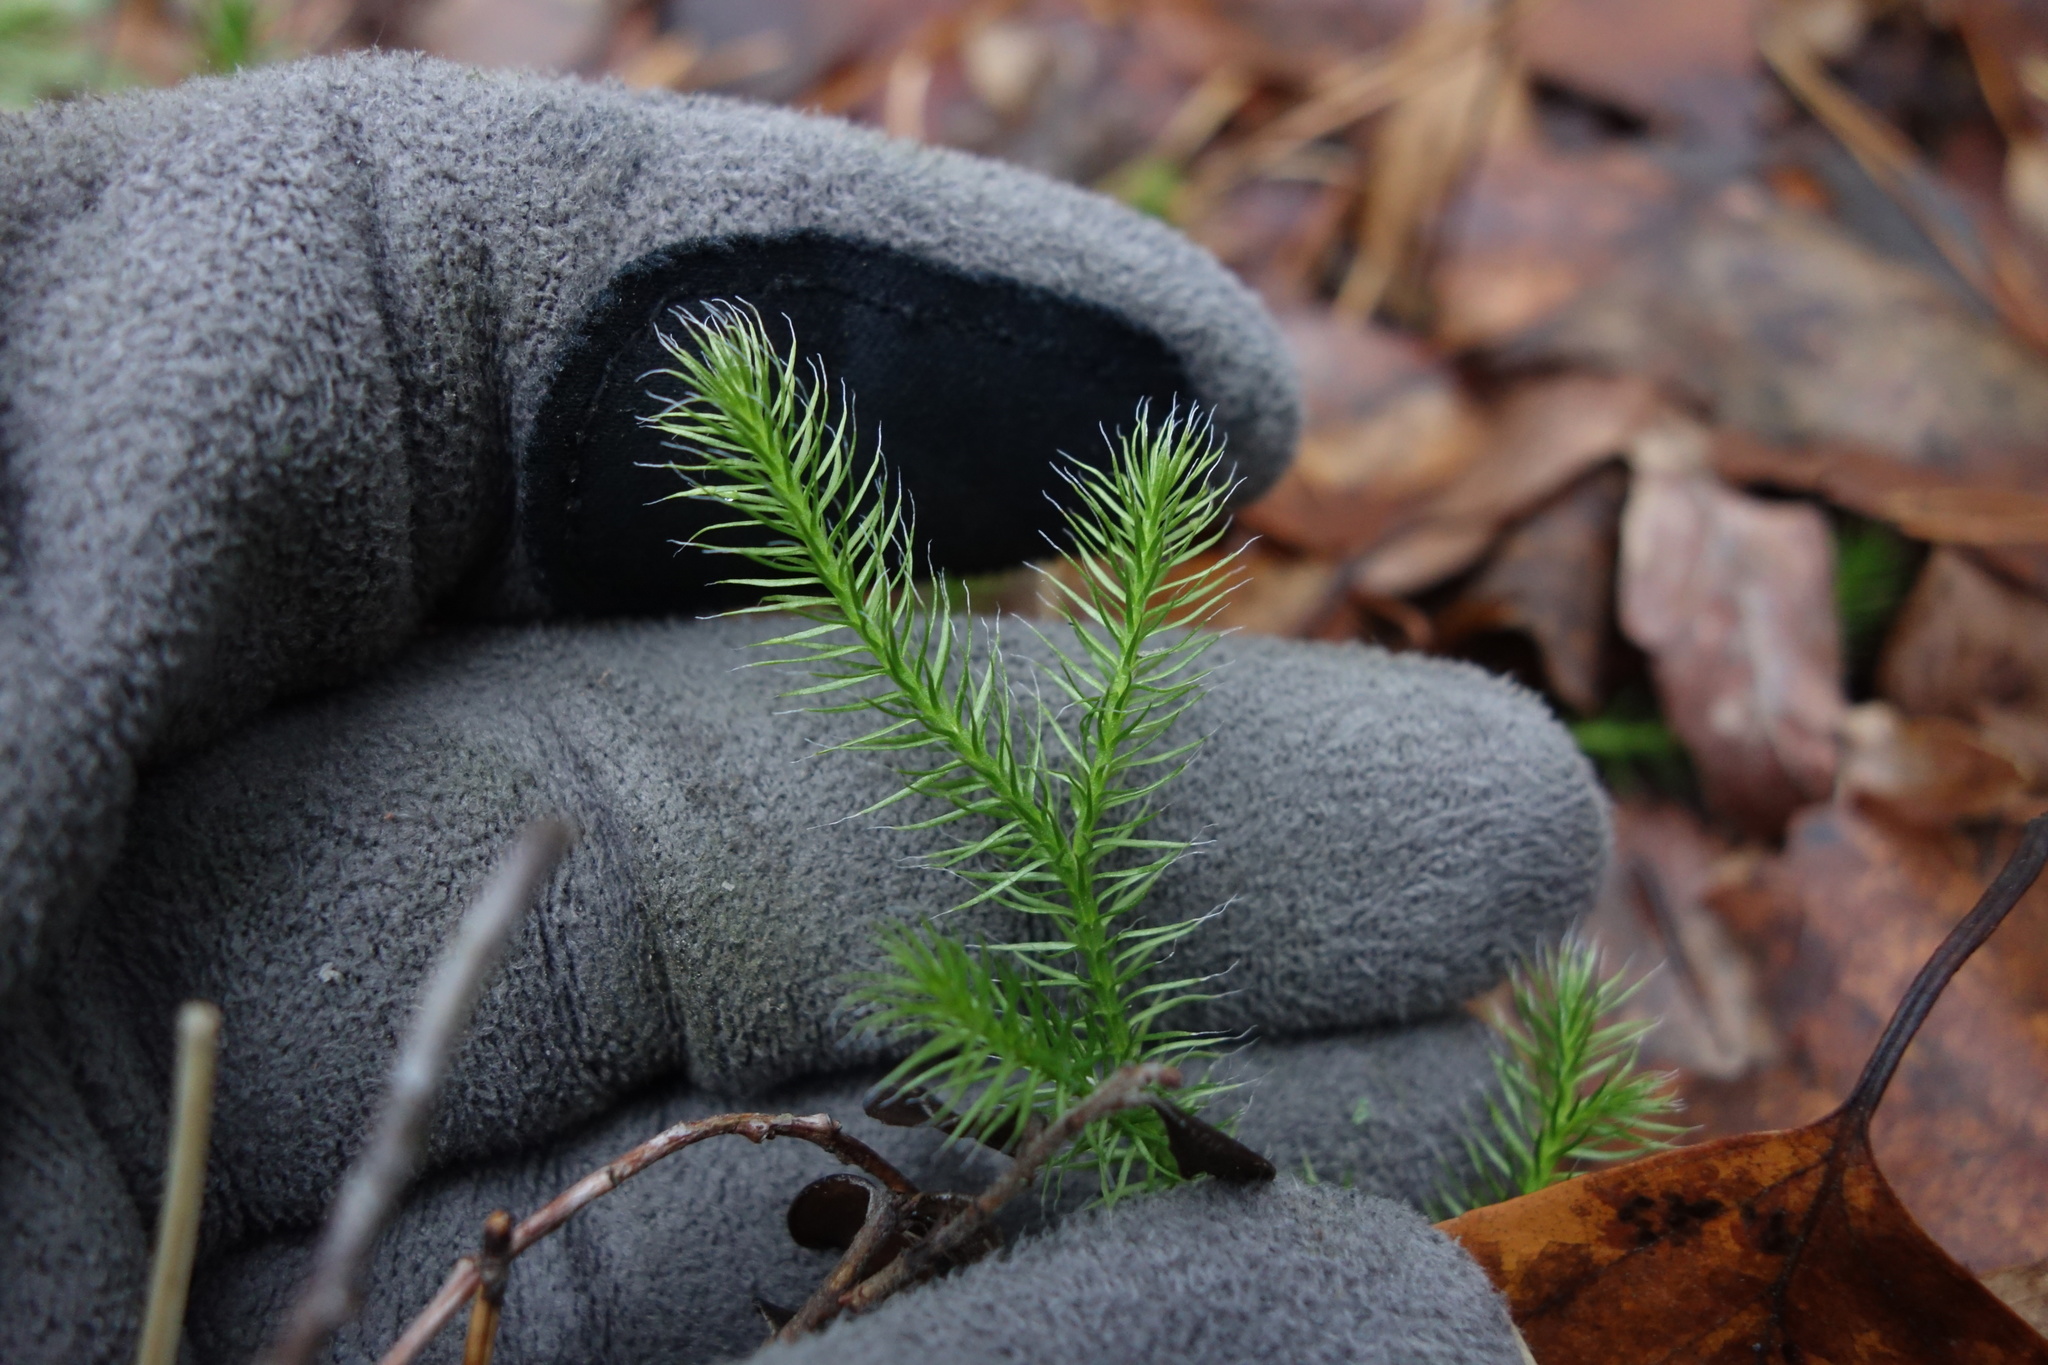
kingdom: Plantae
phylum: Tracheophyta
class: Lycopodiopsida
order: Lycopodiales
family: Lycopodiaceae
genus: Lycopodium
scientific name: Lycopodium clavatum
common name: Stag's-horn clubmoss
